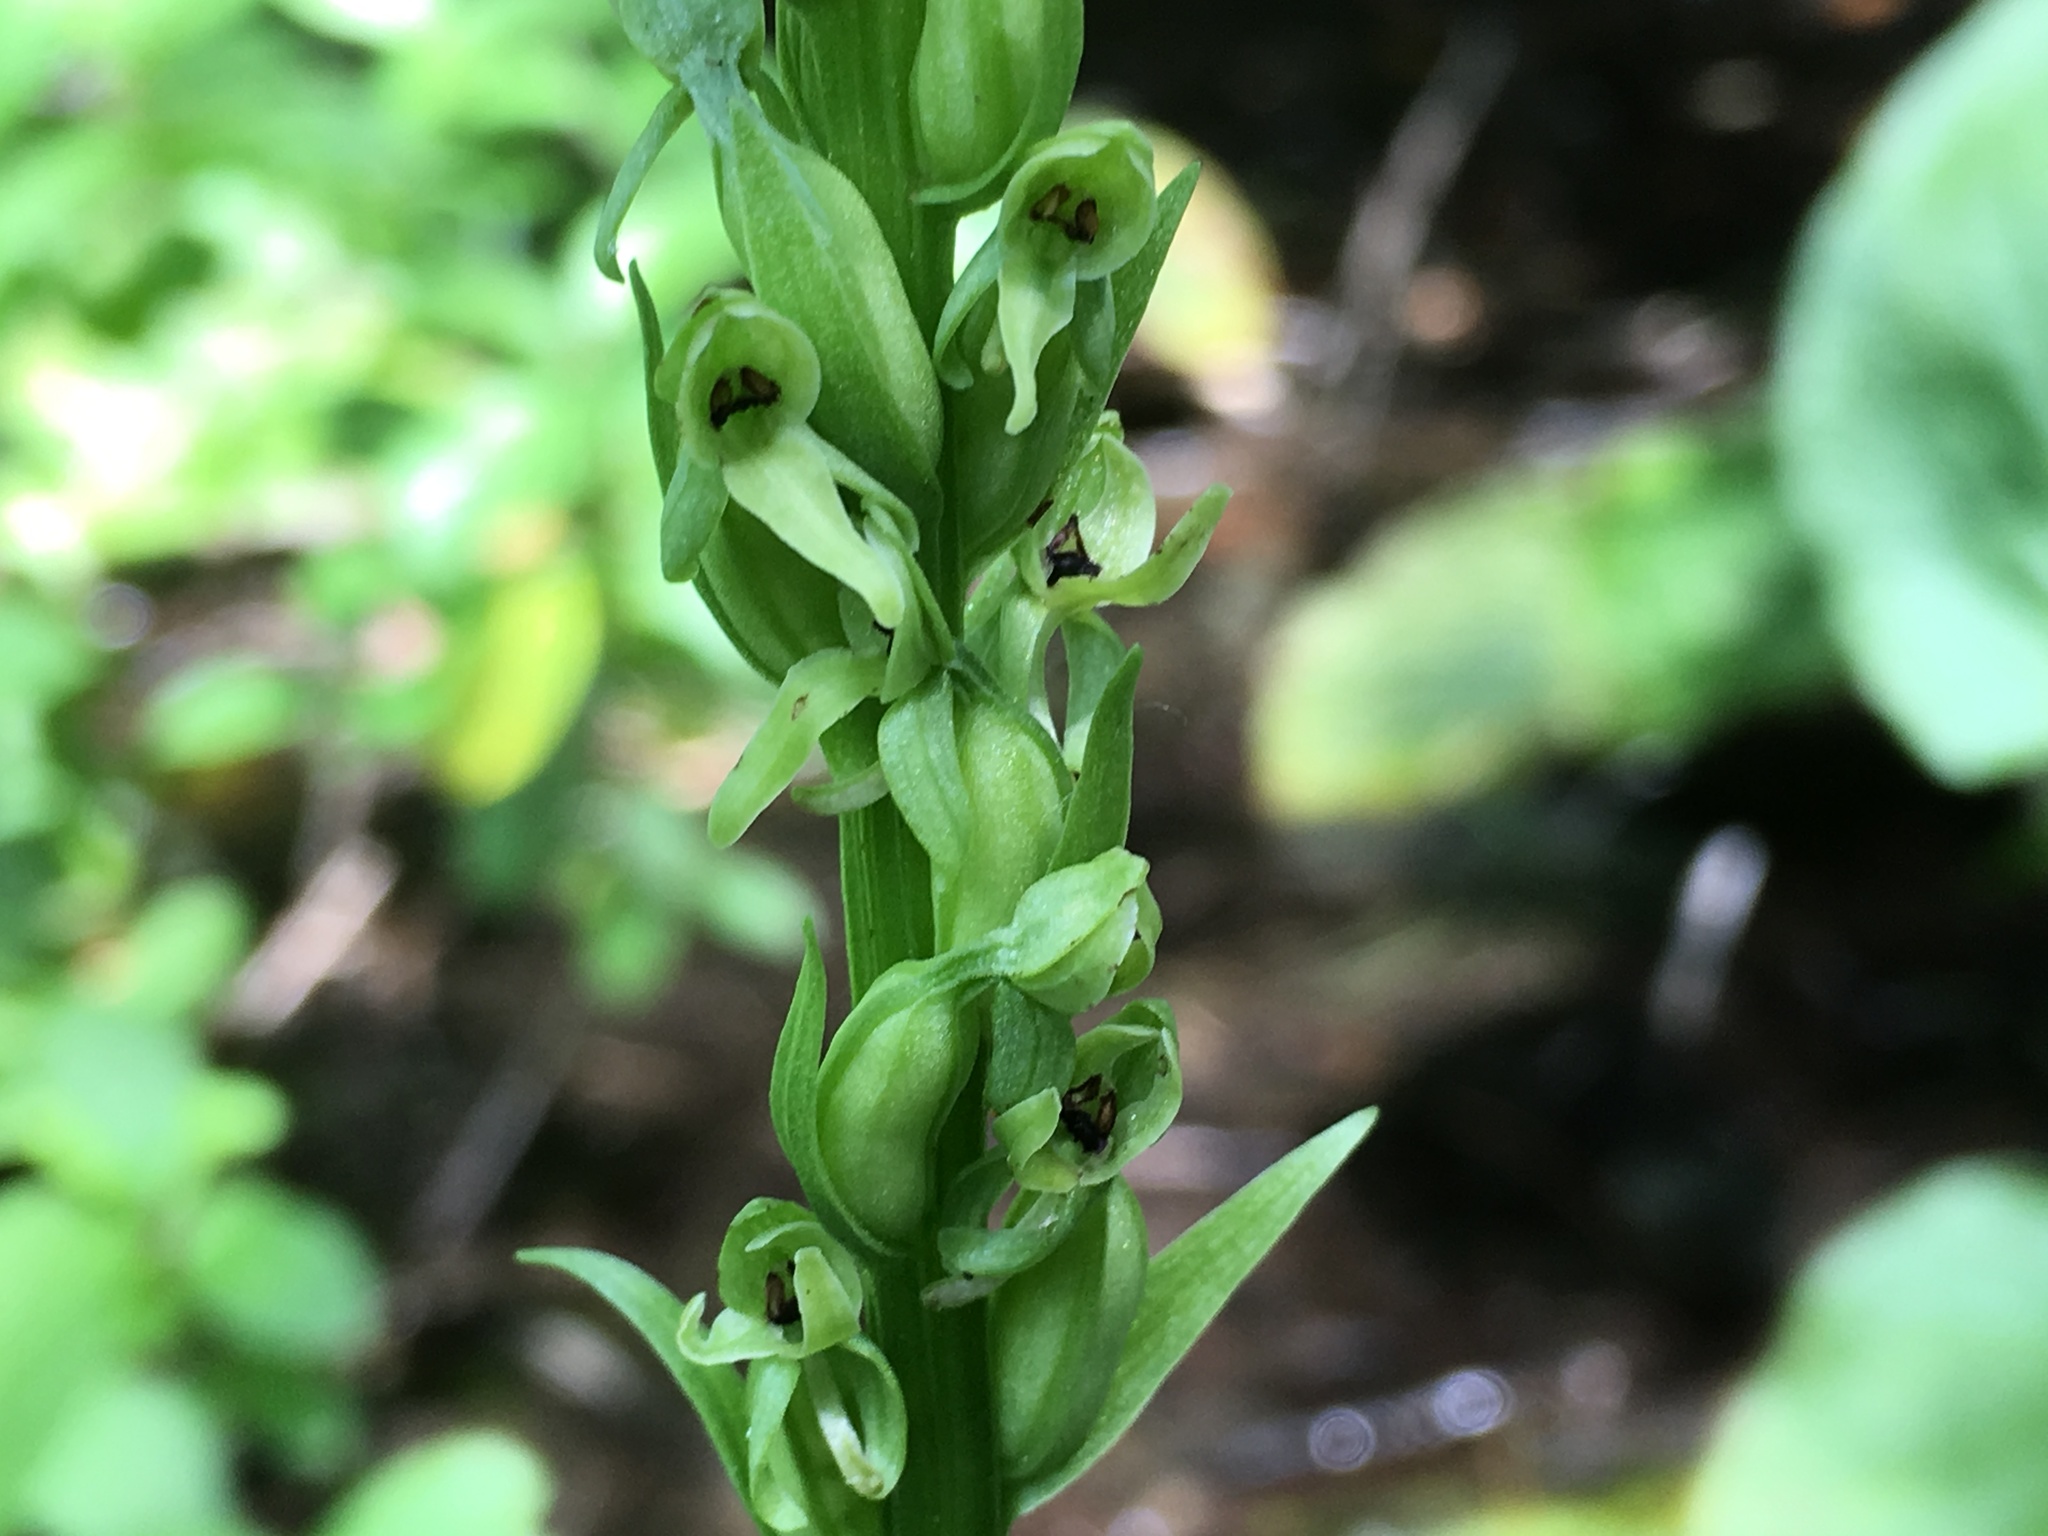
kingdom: Plantae
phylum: Tracheophyta
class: Liliopsida
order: Asparagales
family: Orchidaceae
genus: Platanthera
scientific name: Platanthera huronensis
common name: Fragrant green orchid
